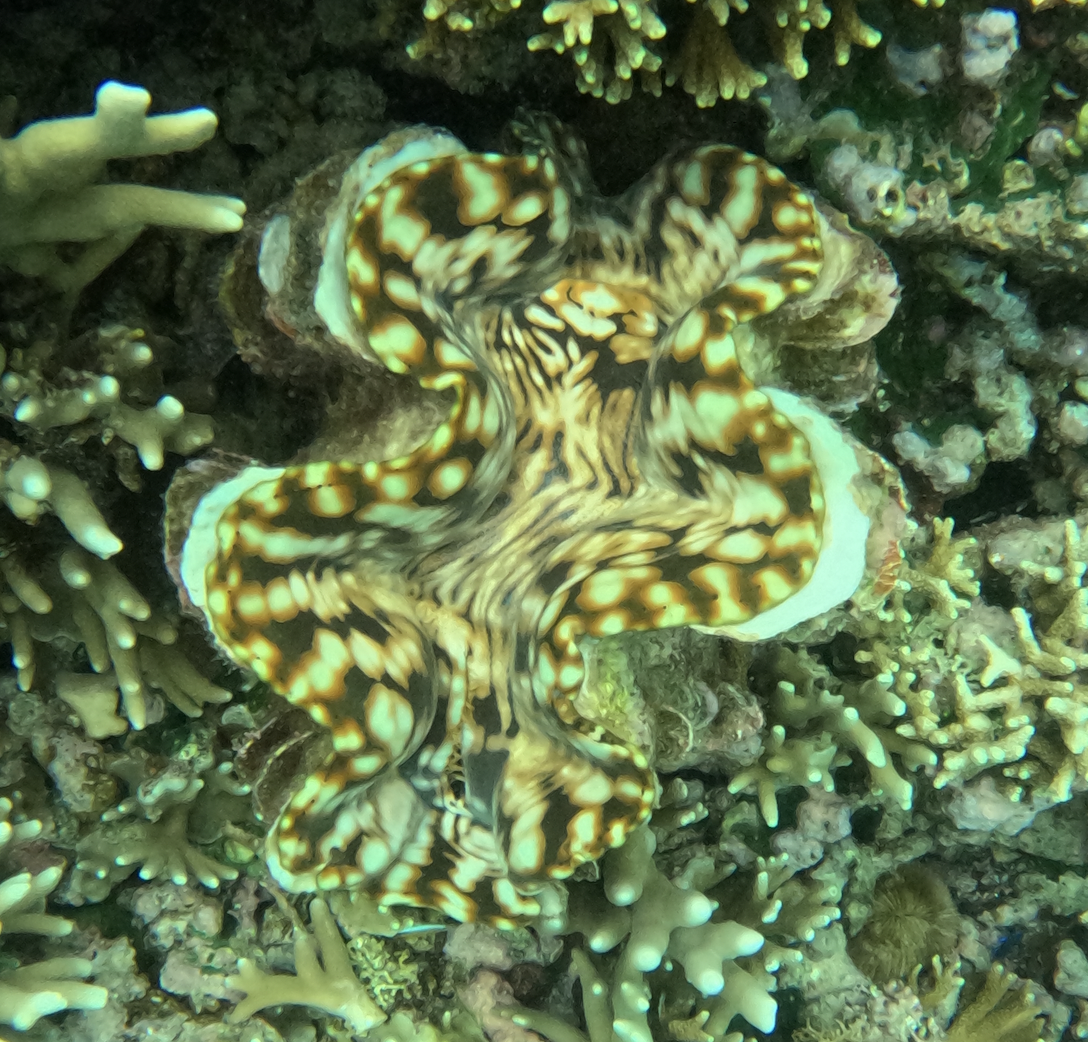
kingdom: Animalia
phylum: Mollusca
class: Bivalvia
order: Cardiida
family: Cardiidae
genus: Tridacna
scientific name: Tridacna squamosa
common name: Fluted clam
